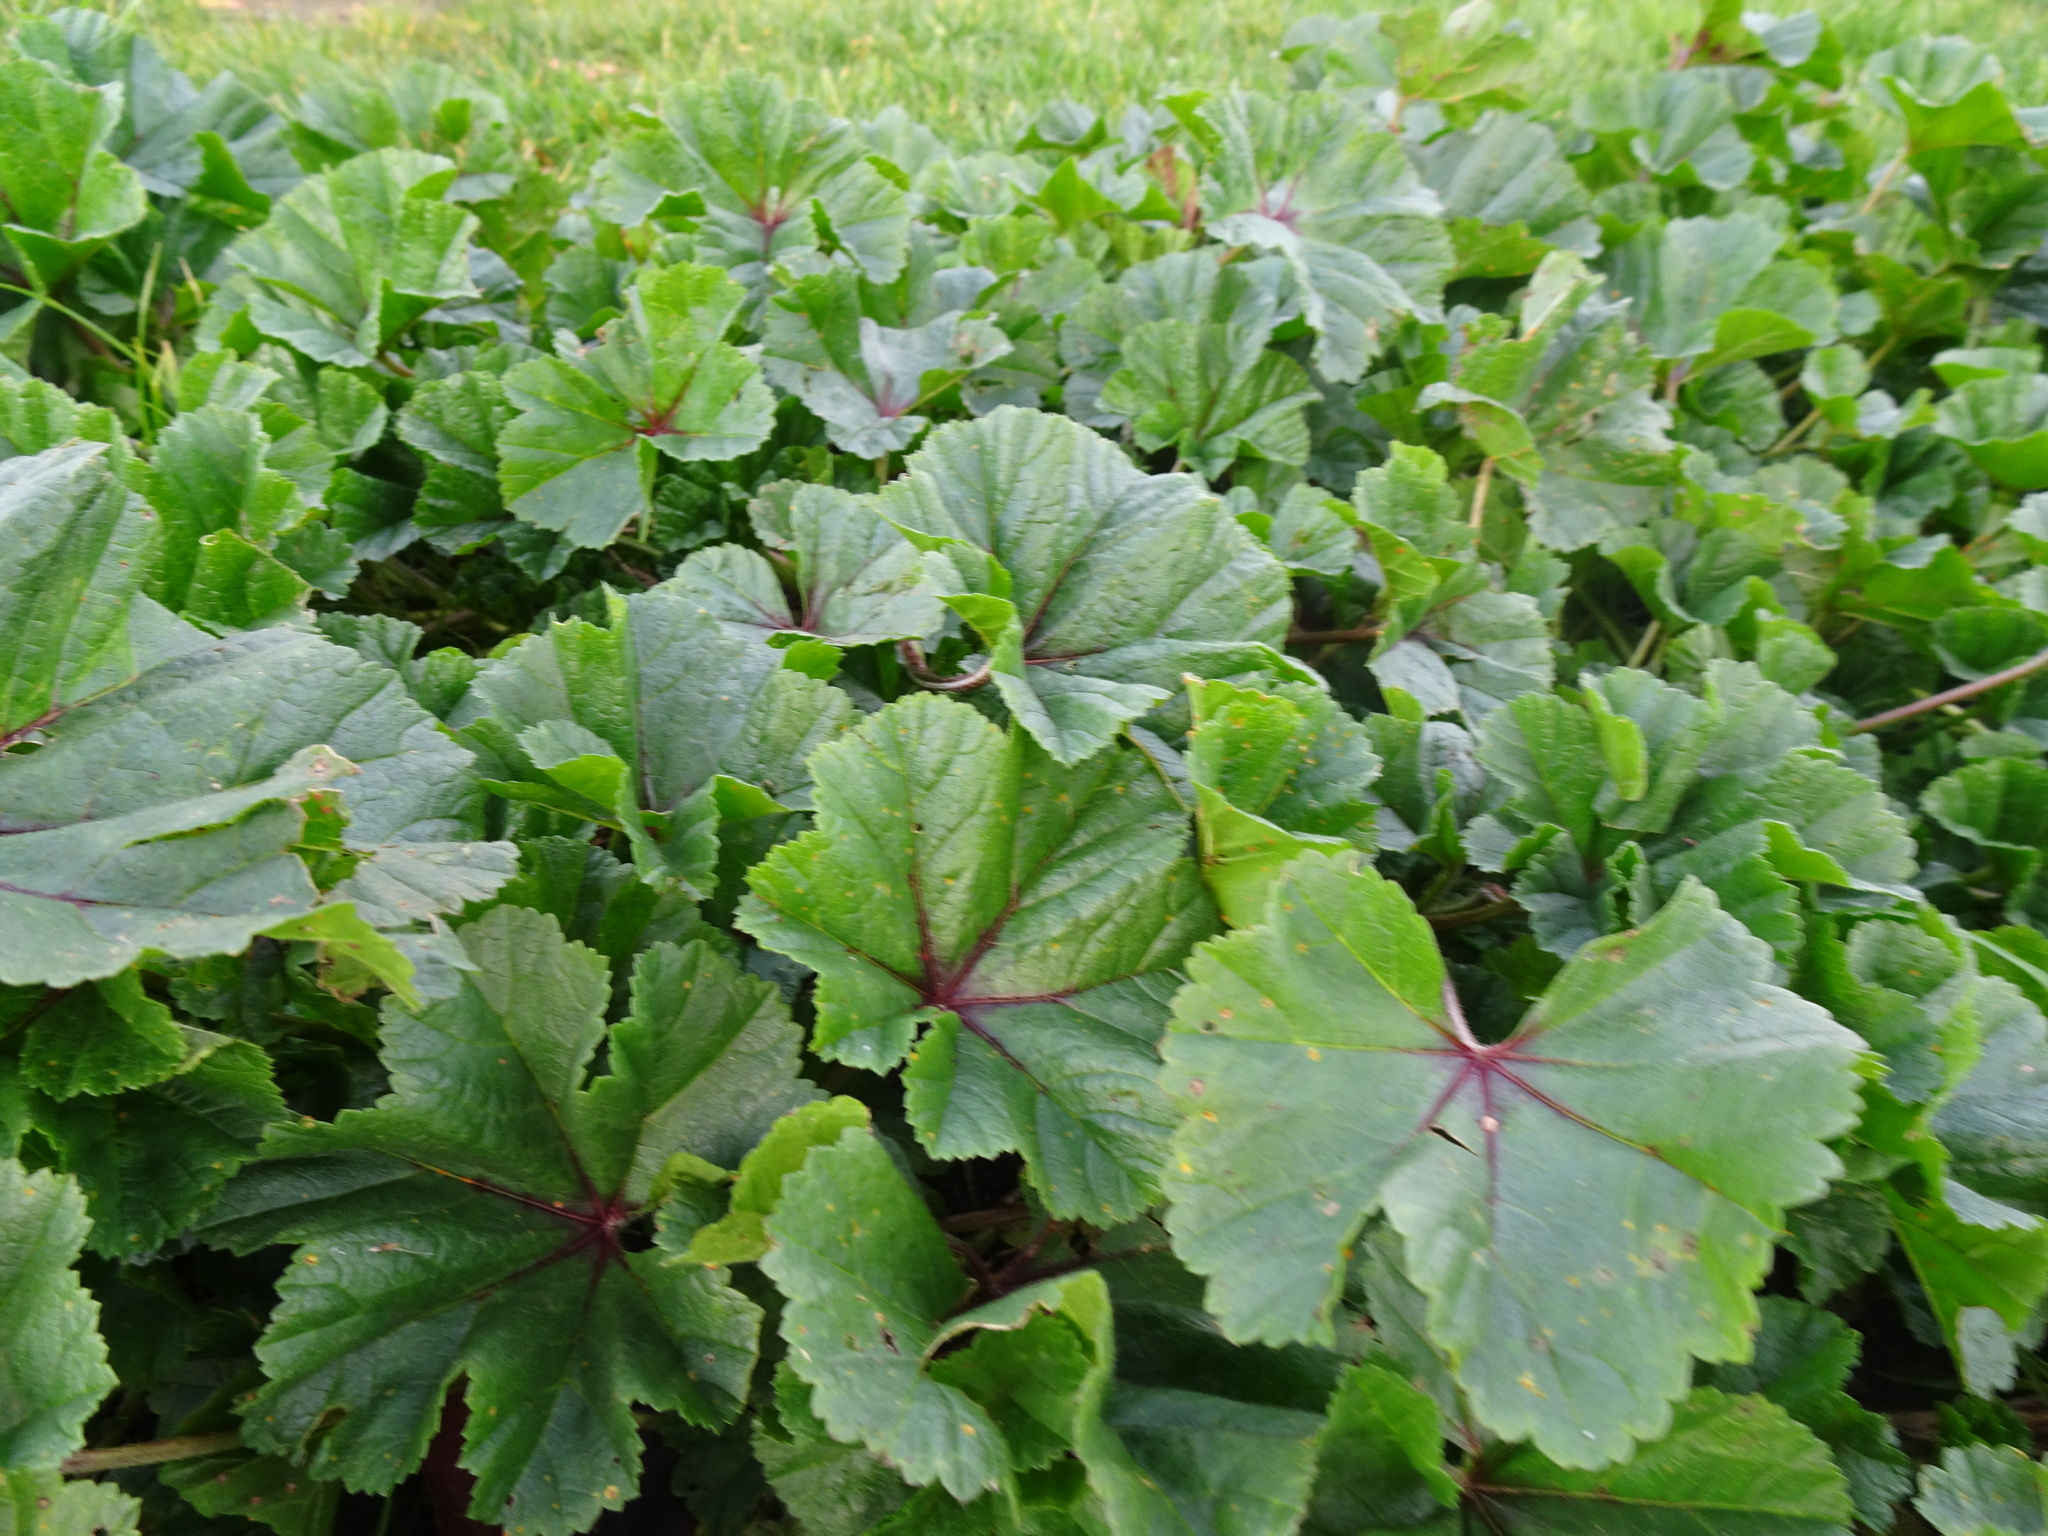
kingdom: Plantae
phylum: Tracheophyta
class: Magnoliopsida
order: Malvales
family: Malvaceae
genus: Malva
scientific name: Malva sylvestris
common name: Common mallow
